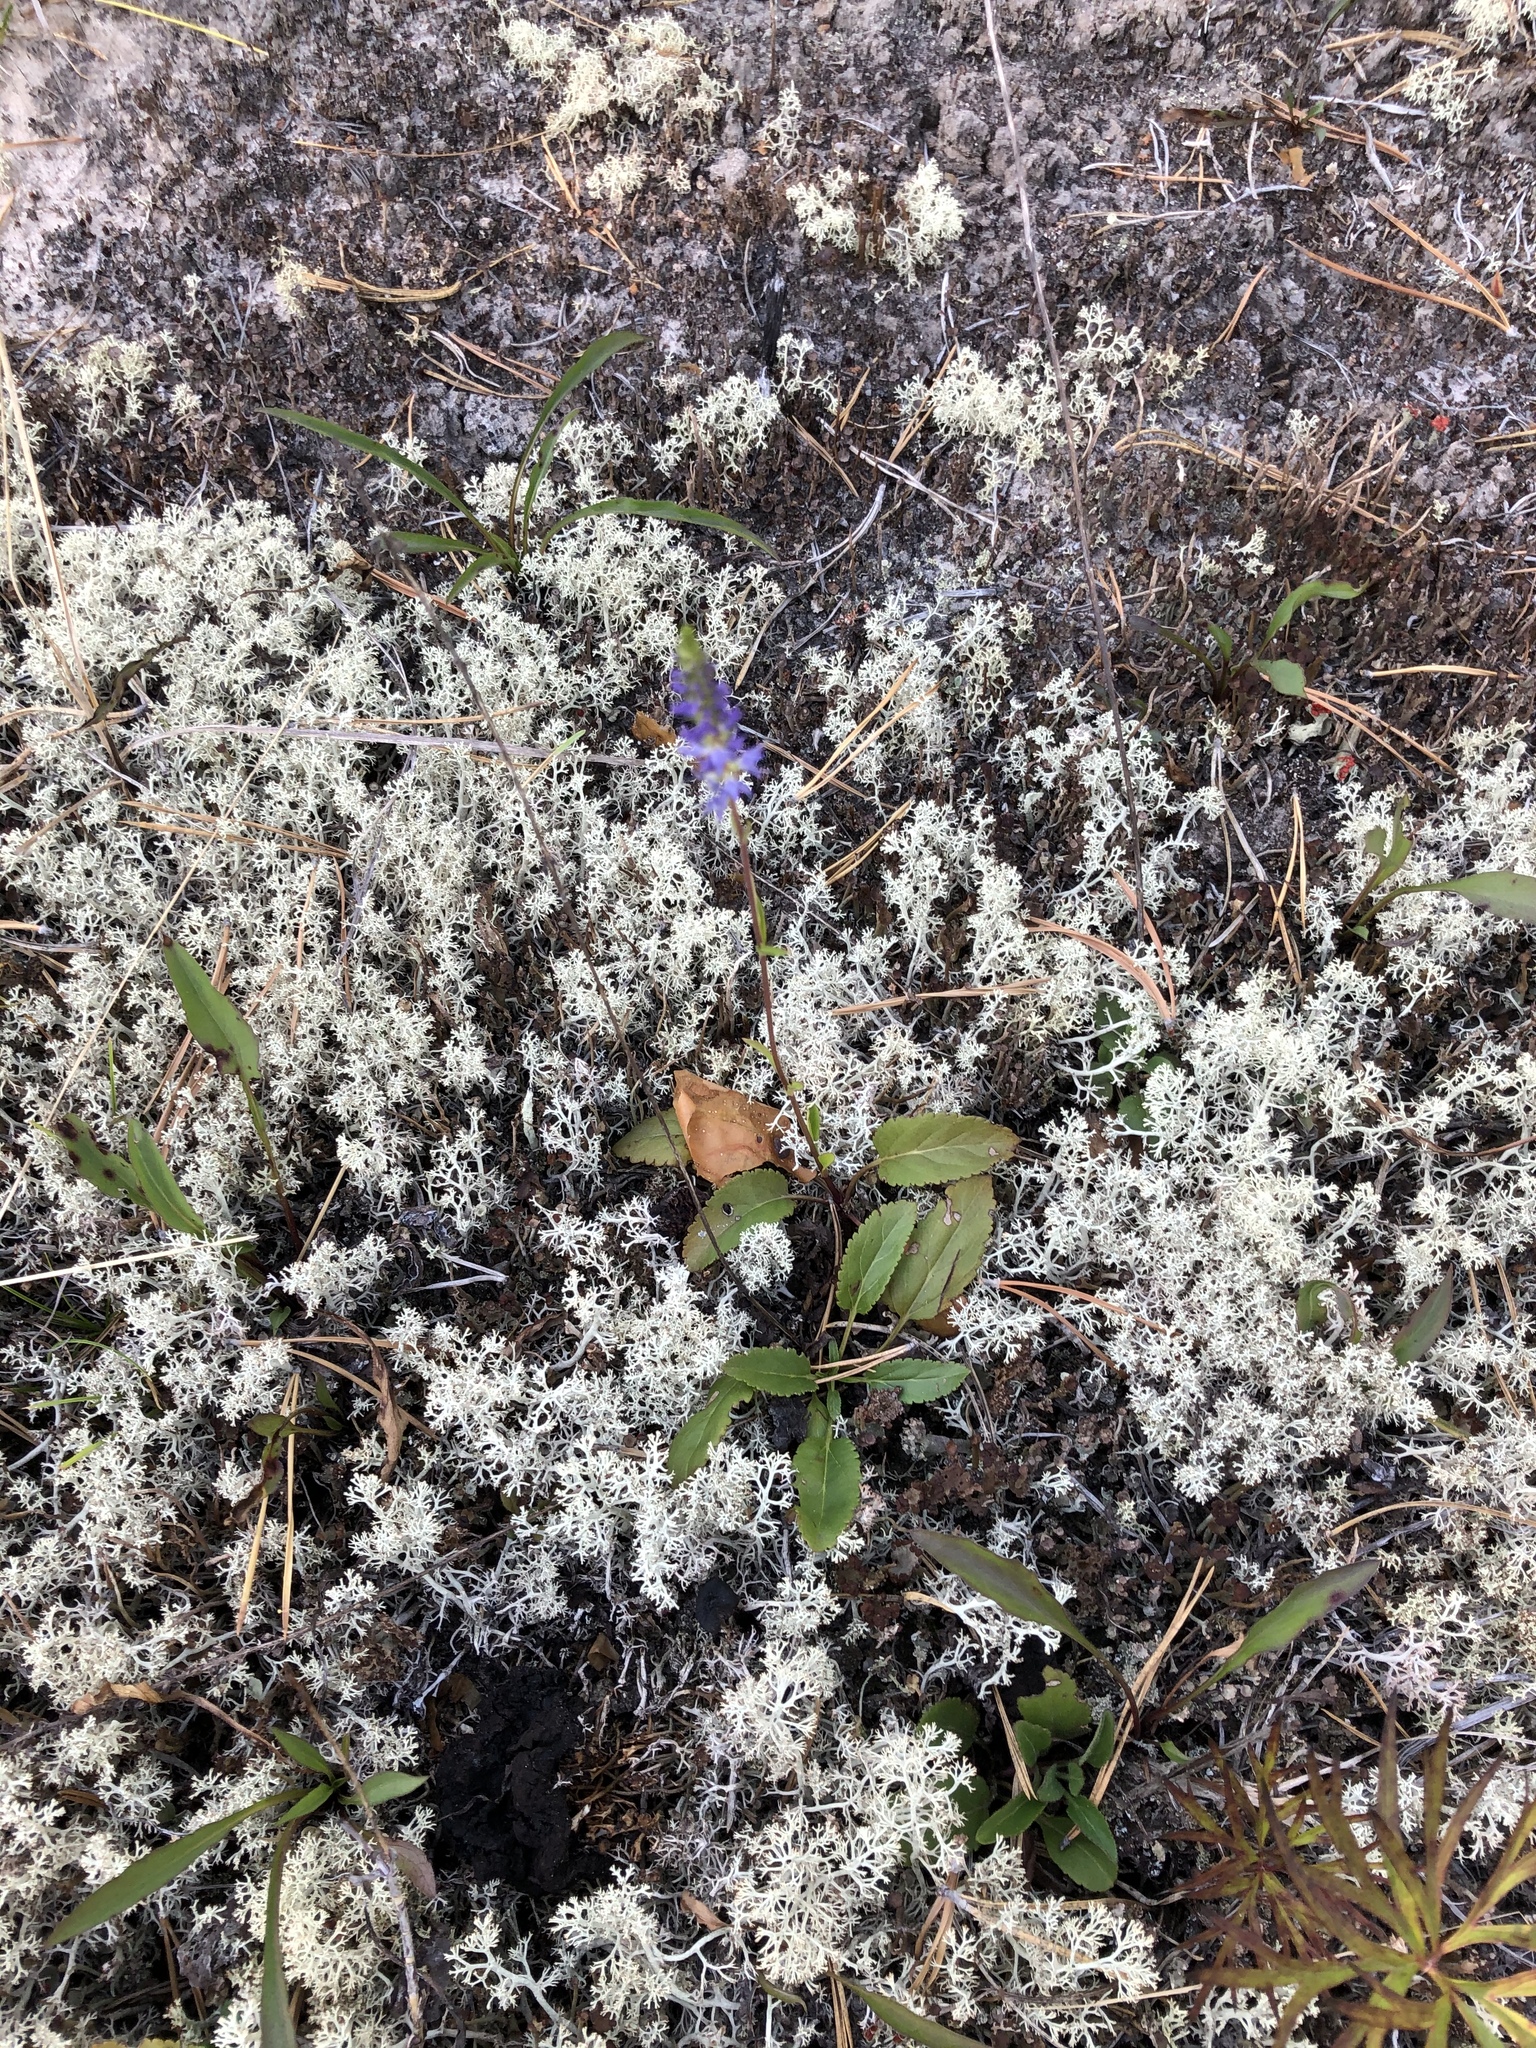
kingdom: Plantae
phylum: Tracheophyta
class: Magnoliopsida
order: Lamiales
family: Plantaginaceae
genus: Veronica
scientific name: Veronica spicata
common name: Spiked speedwell
